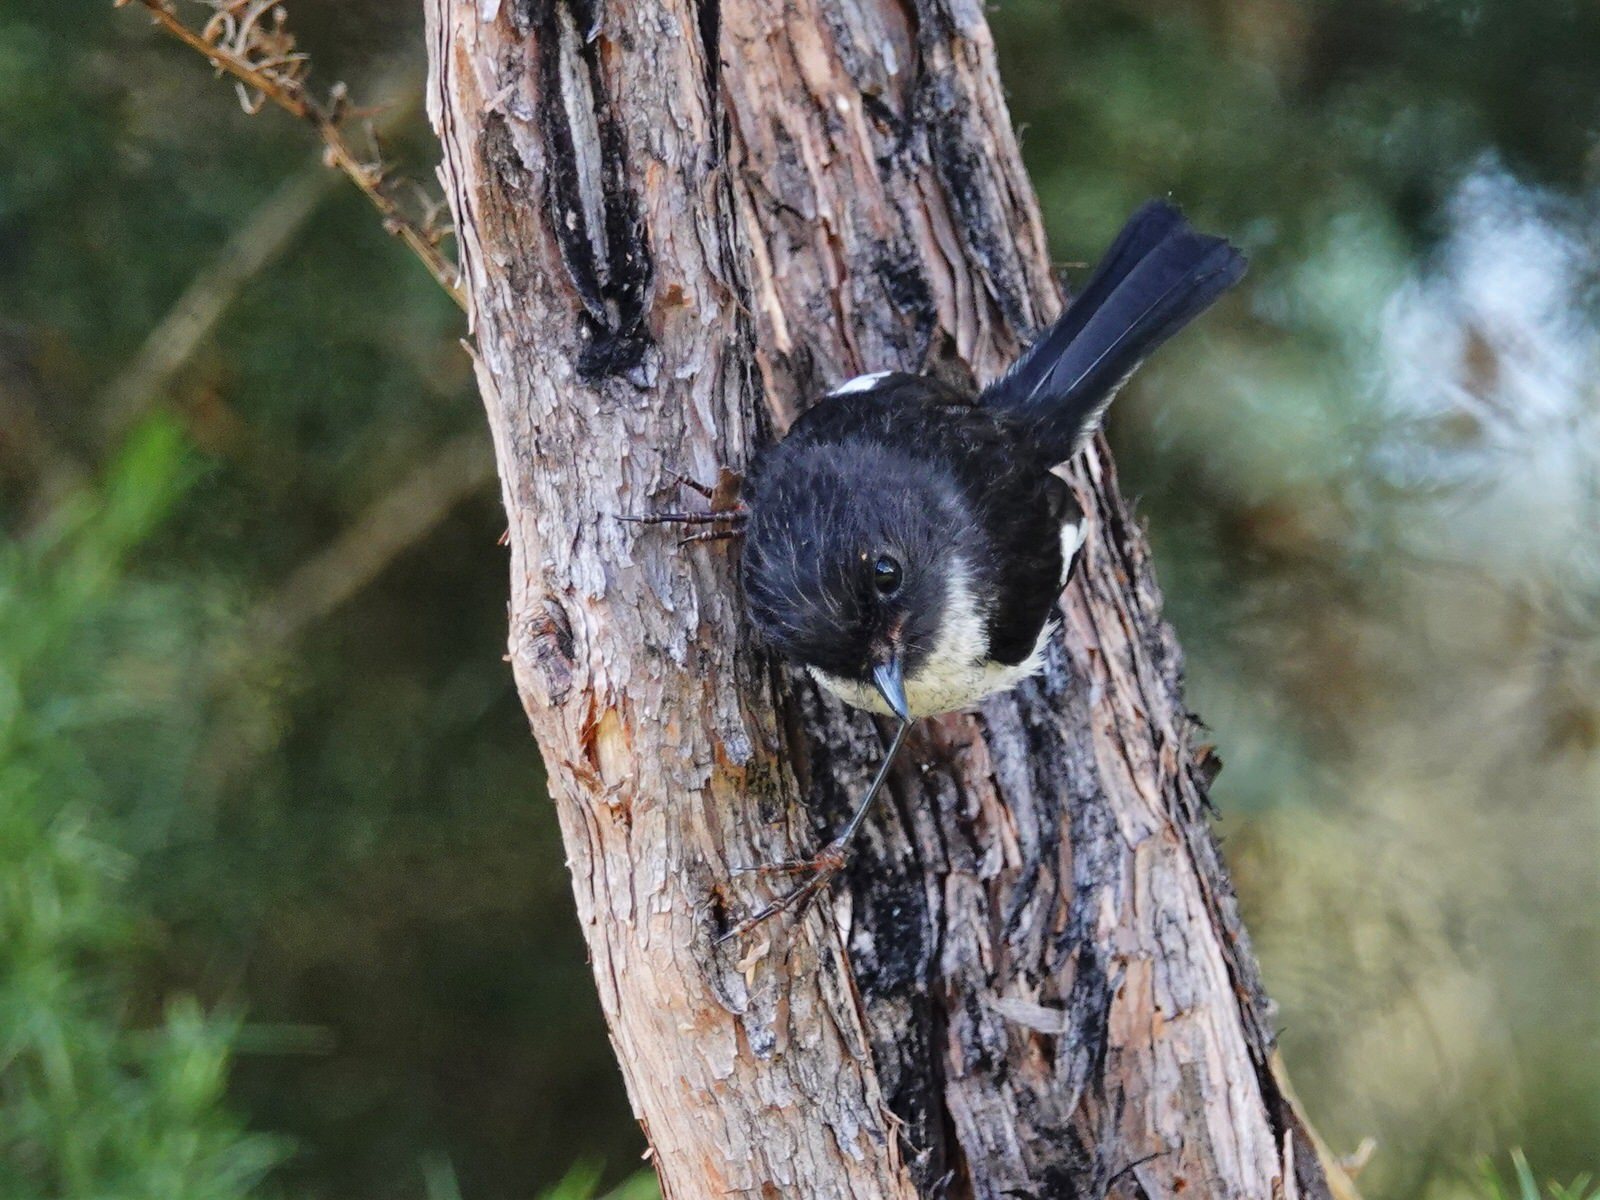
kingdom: Animalia
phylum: Chordata
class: Aves
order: Passeriformes
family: Petroicidae
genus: Petroica
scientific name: Petroica macrocephala
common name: Tomtit
